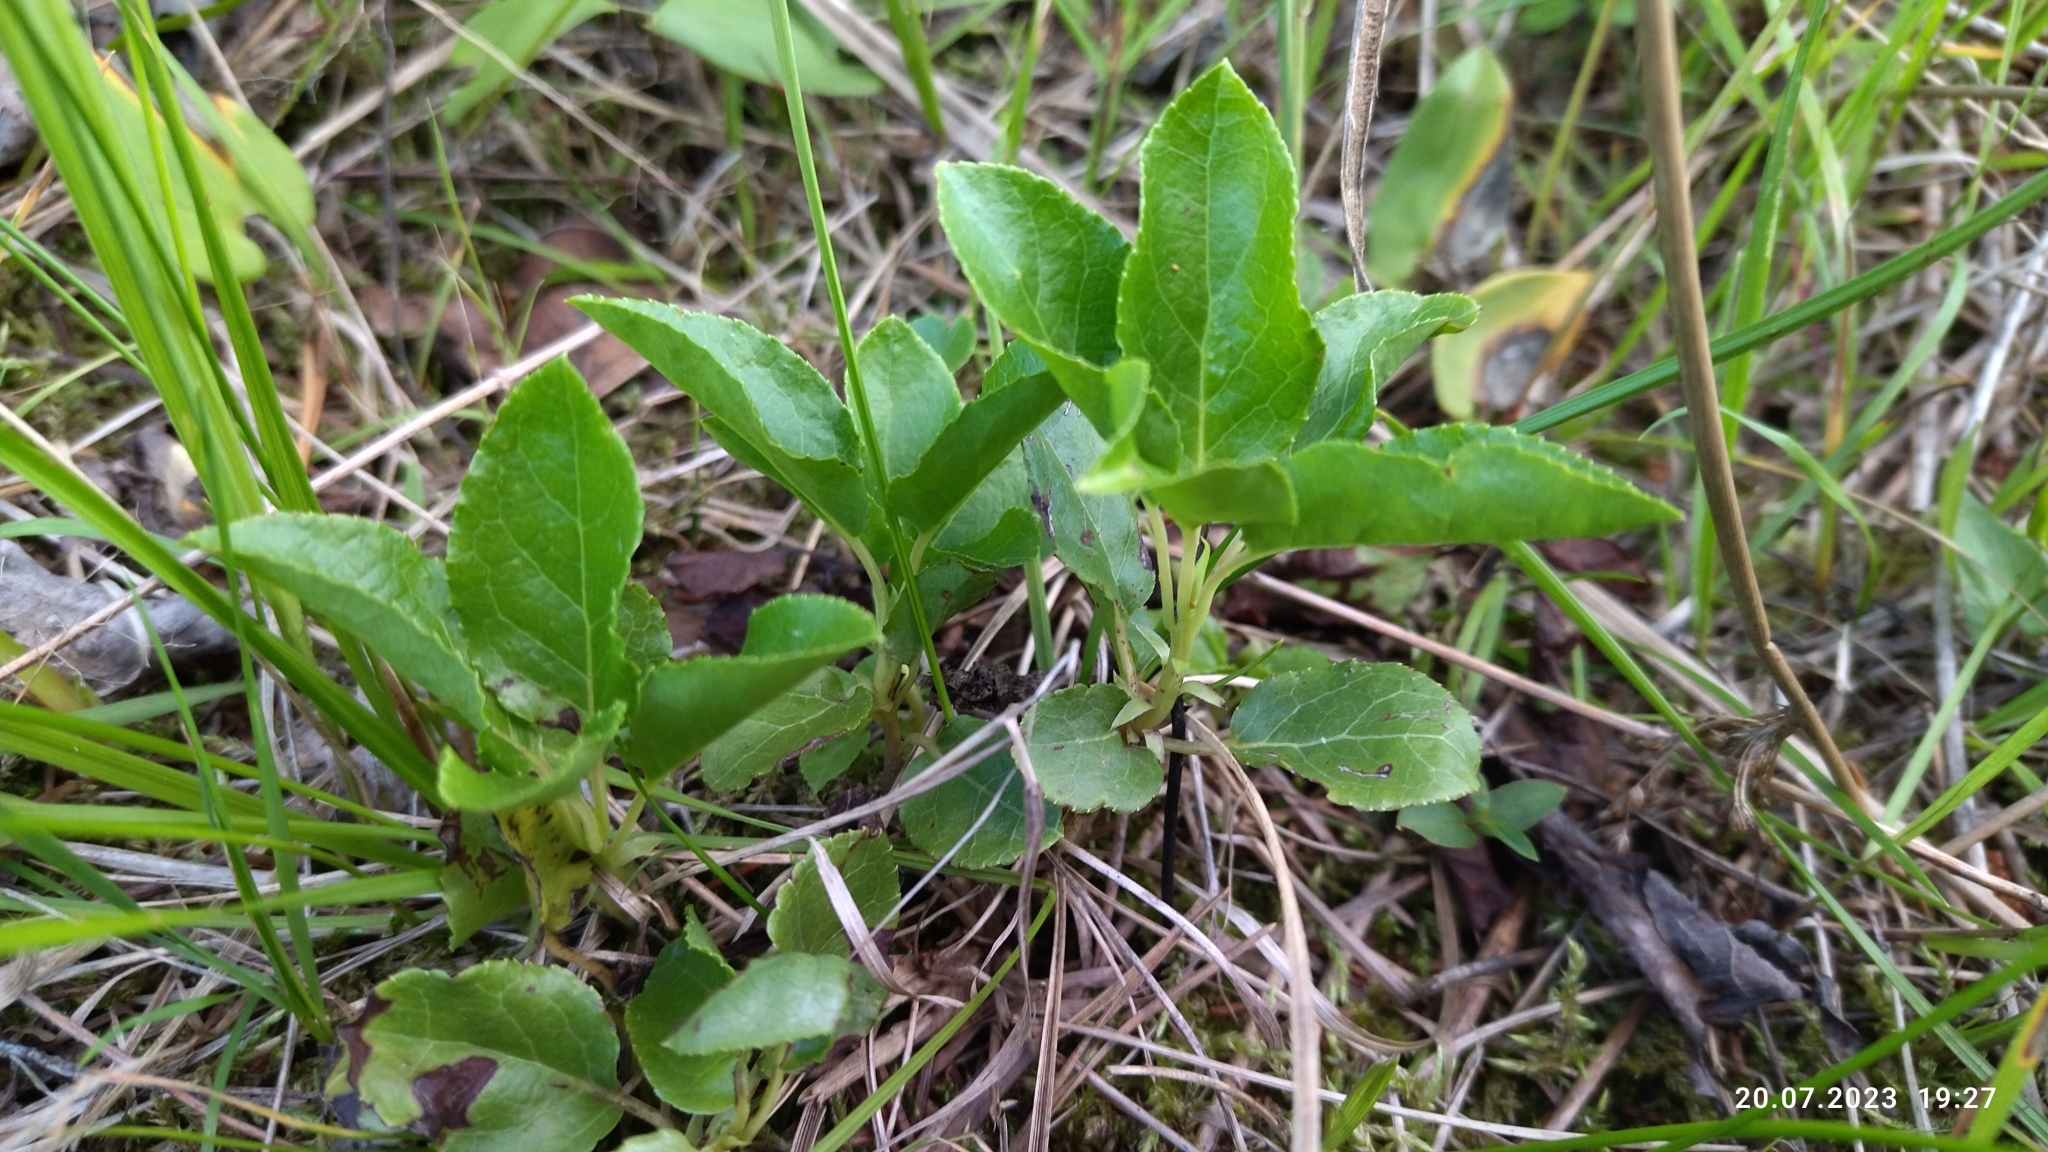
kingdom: Plantae
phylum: Tracheophyta
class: Magnoliopsida
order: Ericales
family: Ericaceae
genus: Orthilia
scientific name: Orthilia secunda
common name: One-sided orthilia
